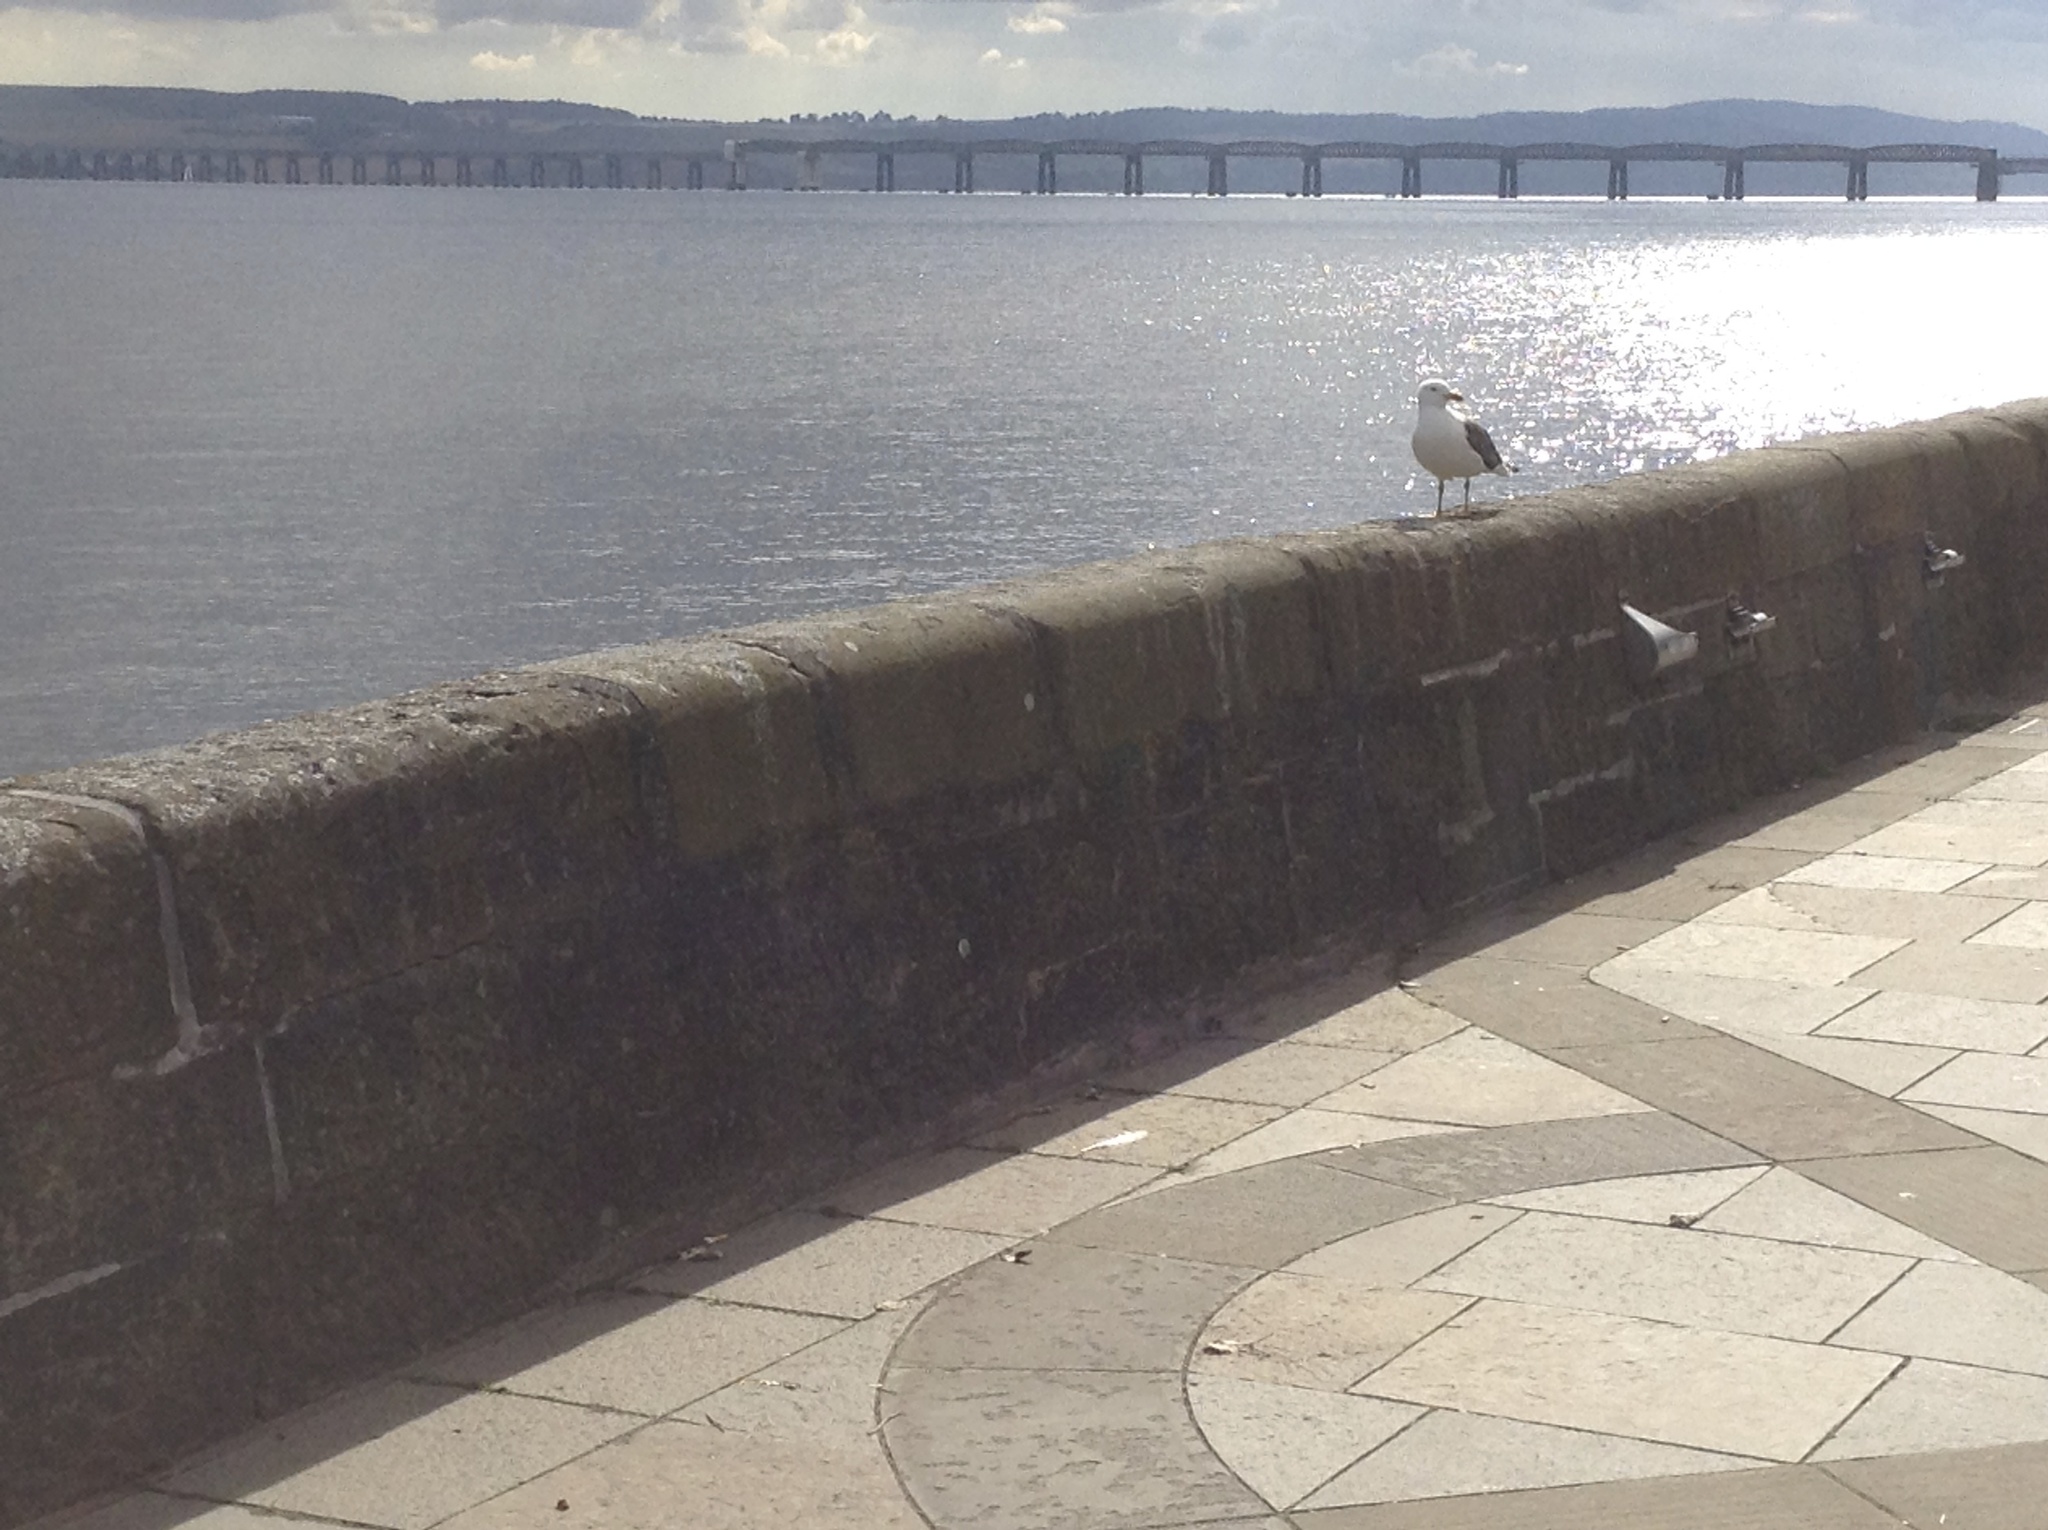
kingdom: Animalia
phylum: Chordata
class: Aves
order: Charadriiformes
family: Laridae
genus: Larus
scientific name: Larus fuscus
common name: Lesser black-backed gull
